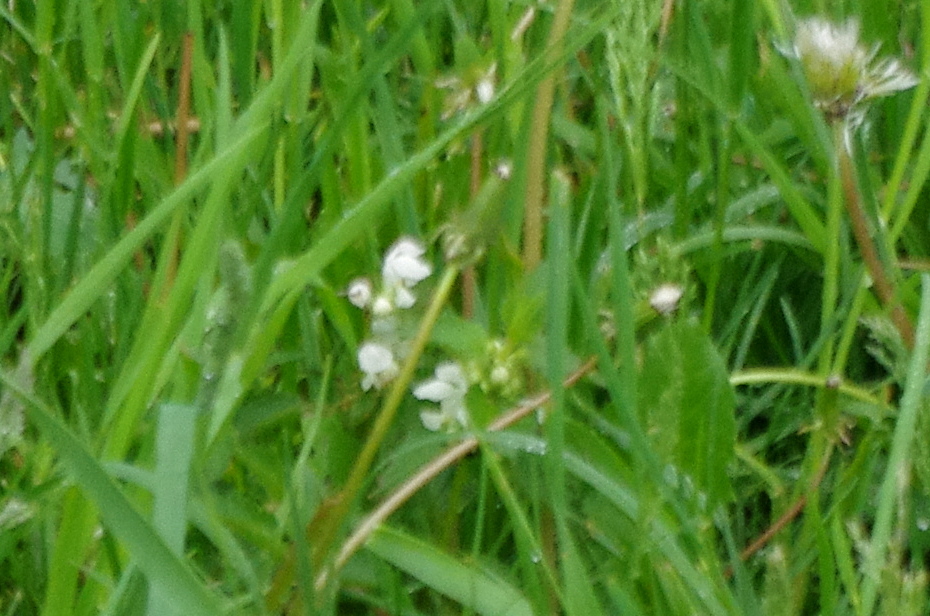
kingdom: Plantae
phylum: Tracheophyta
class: Magnoliopsida
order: Lamiales
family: Lamiaceae
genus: Lamium
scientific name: Lamium album
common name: White dead-nettle
